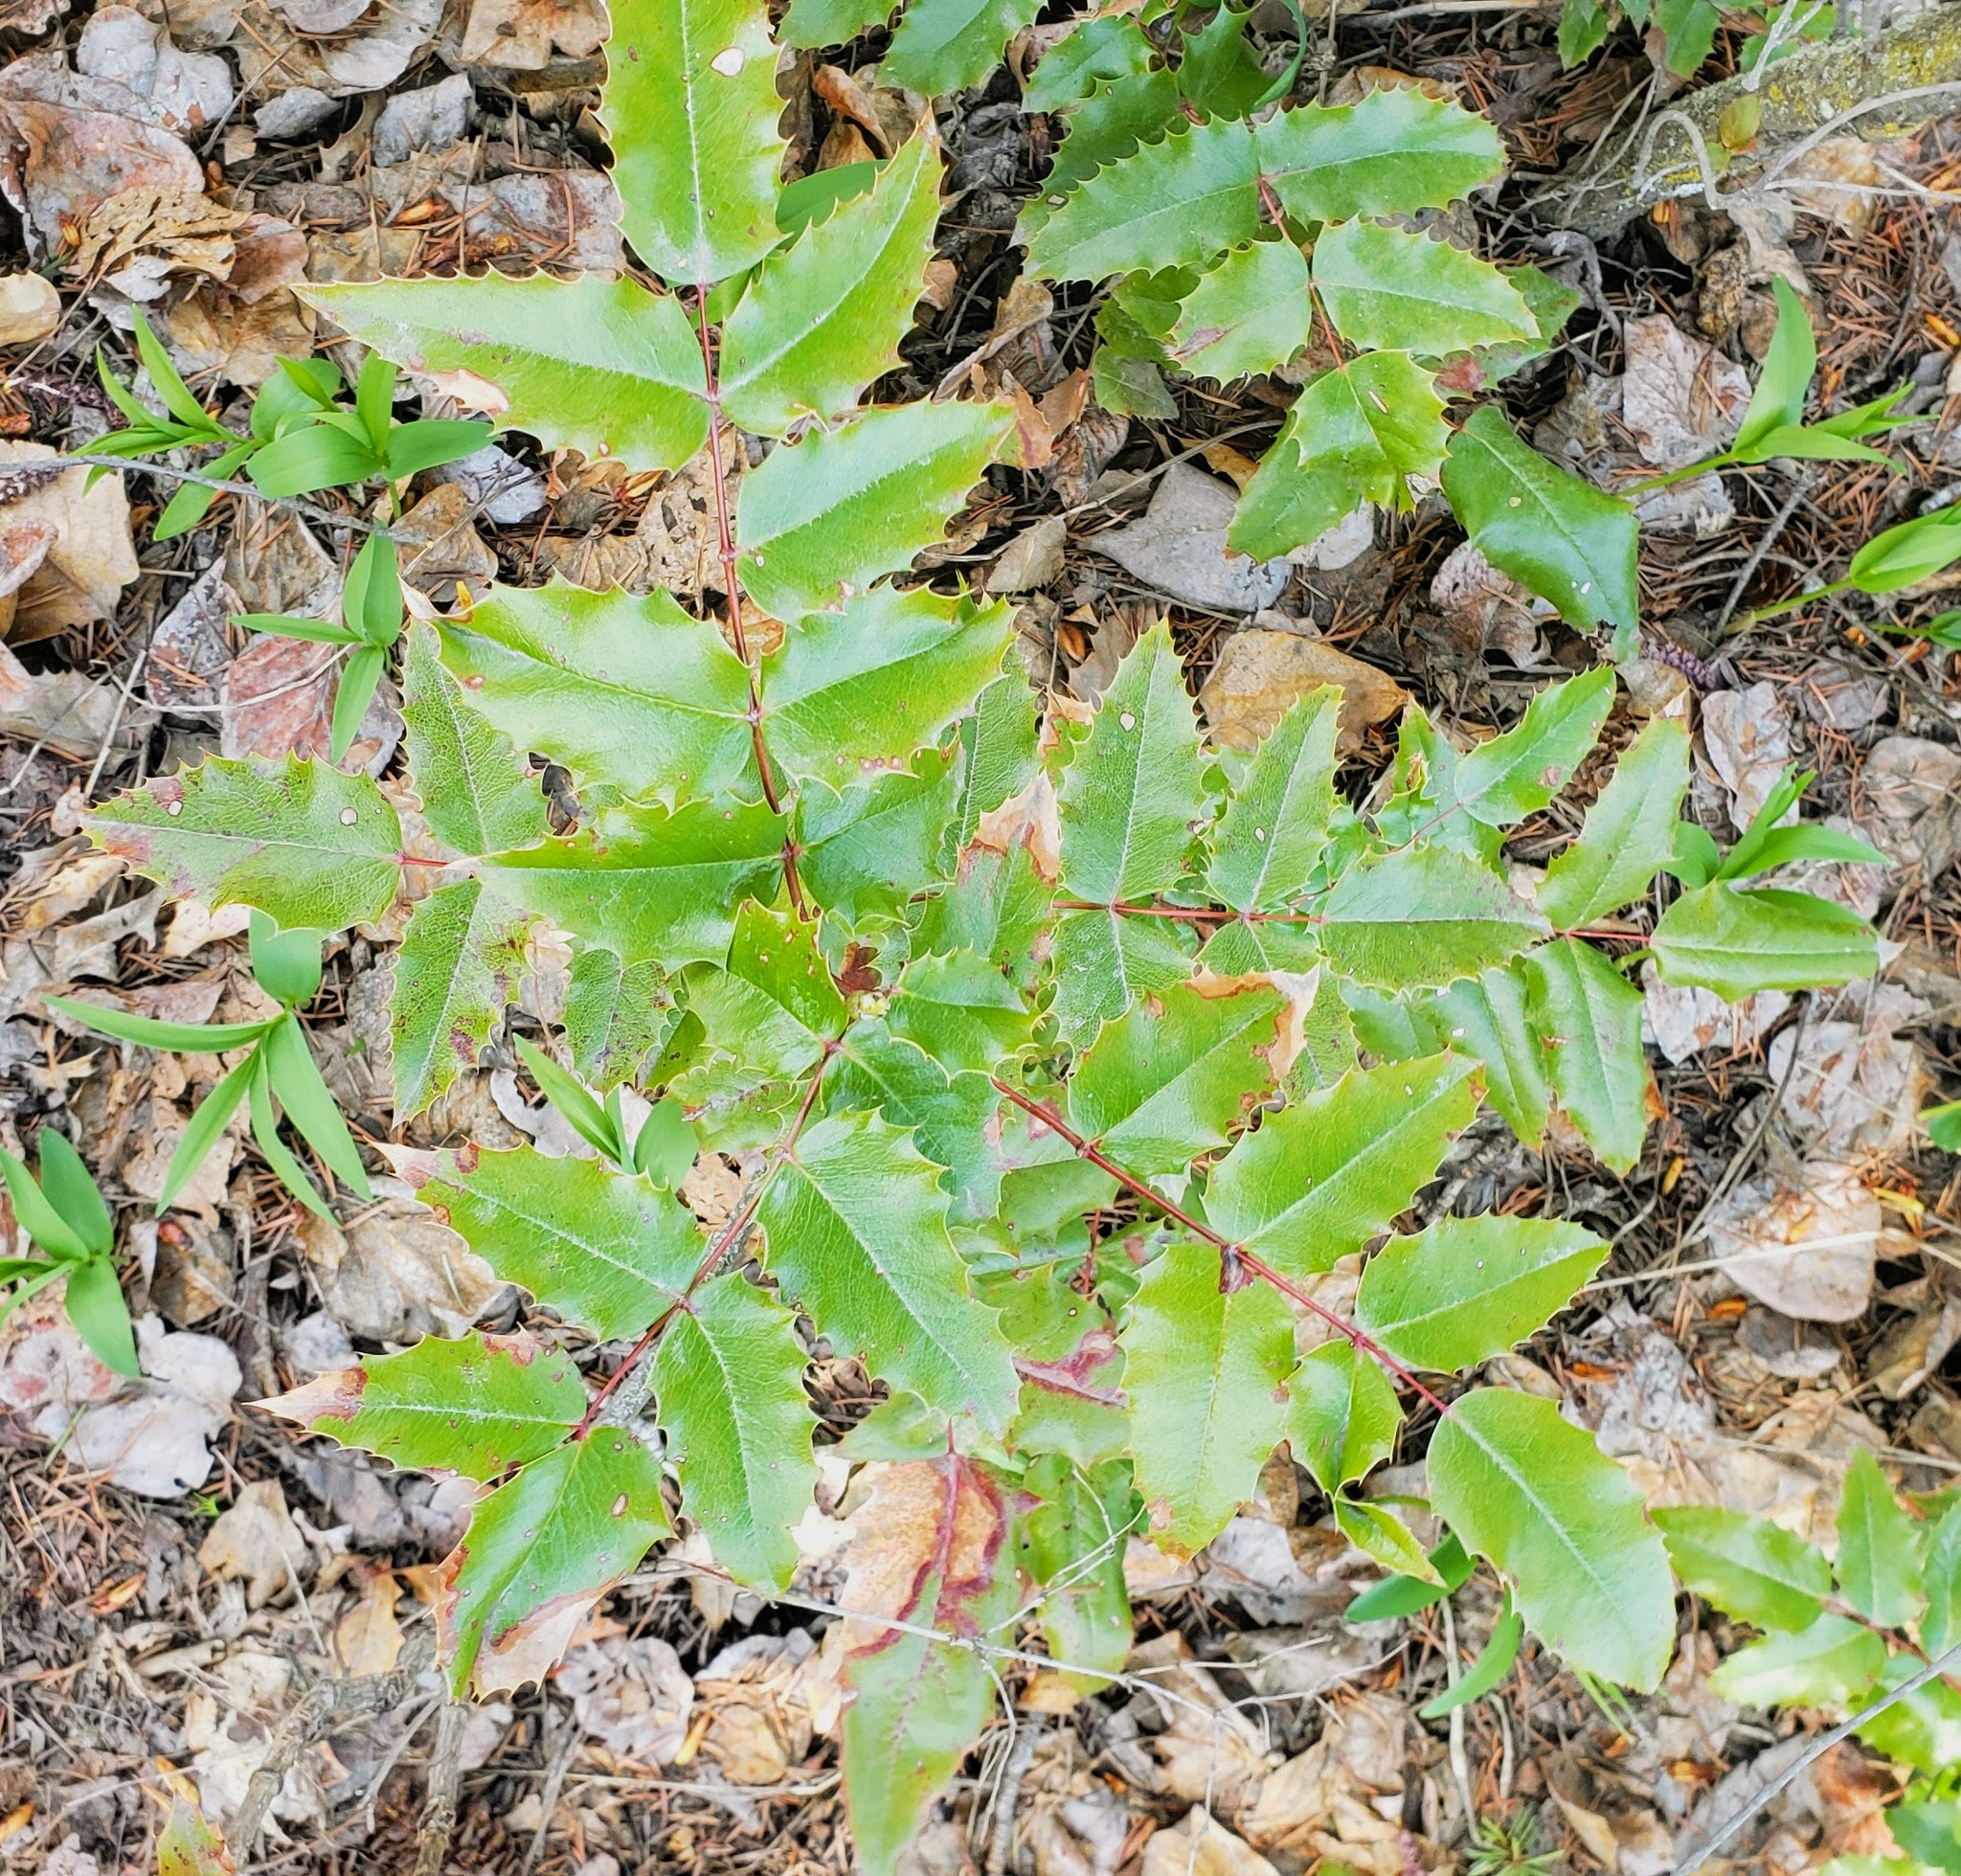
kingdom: Plantae
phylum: Tracheophyta
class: Magnoliopsida
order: Ranunculales
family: Berberidaceae
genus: Mahonia
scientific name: Mahonia aquifolium
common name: Oregon-grape
